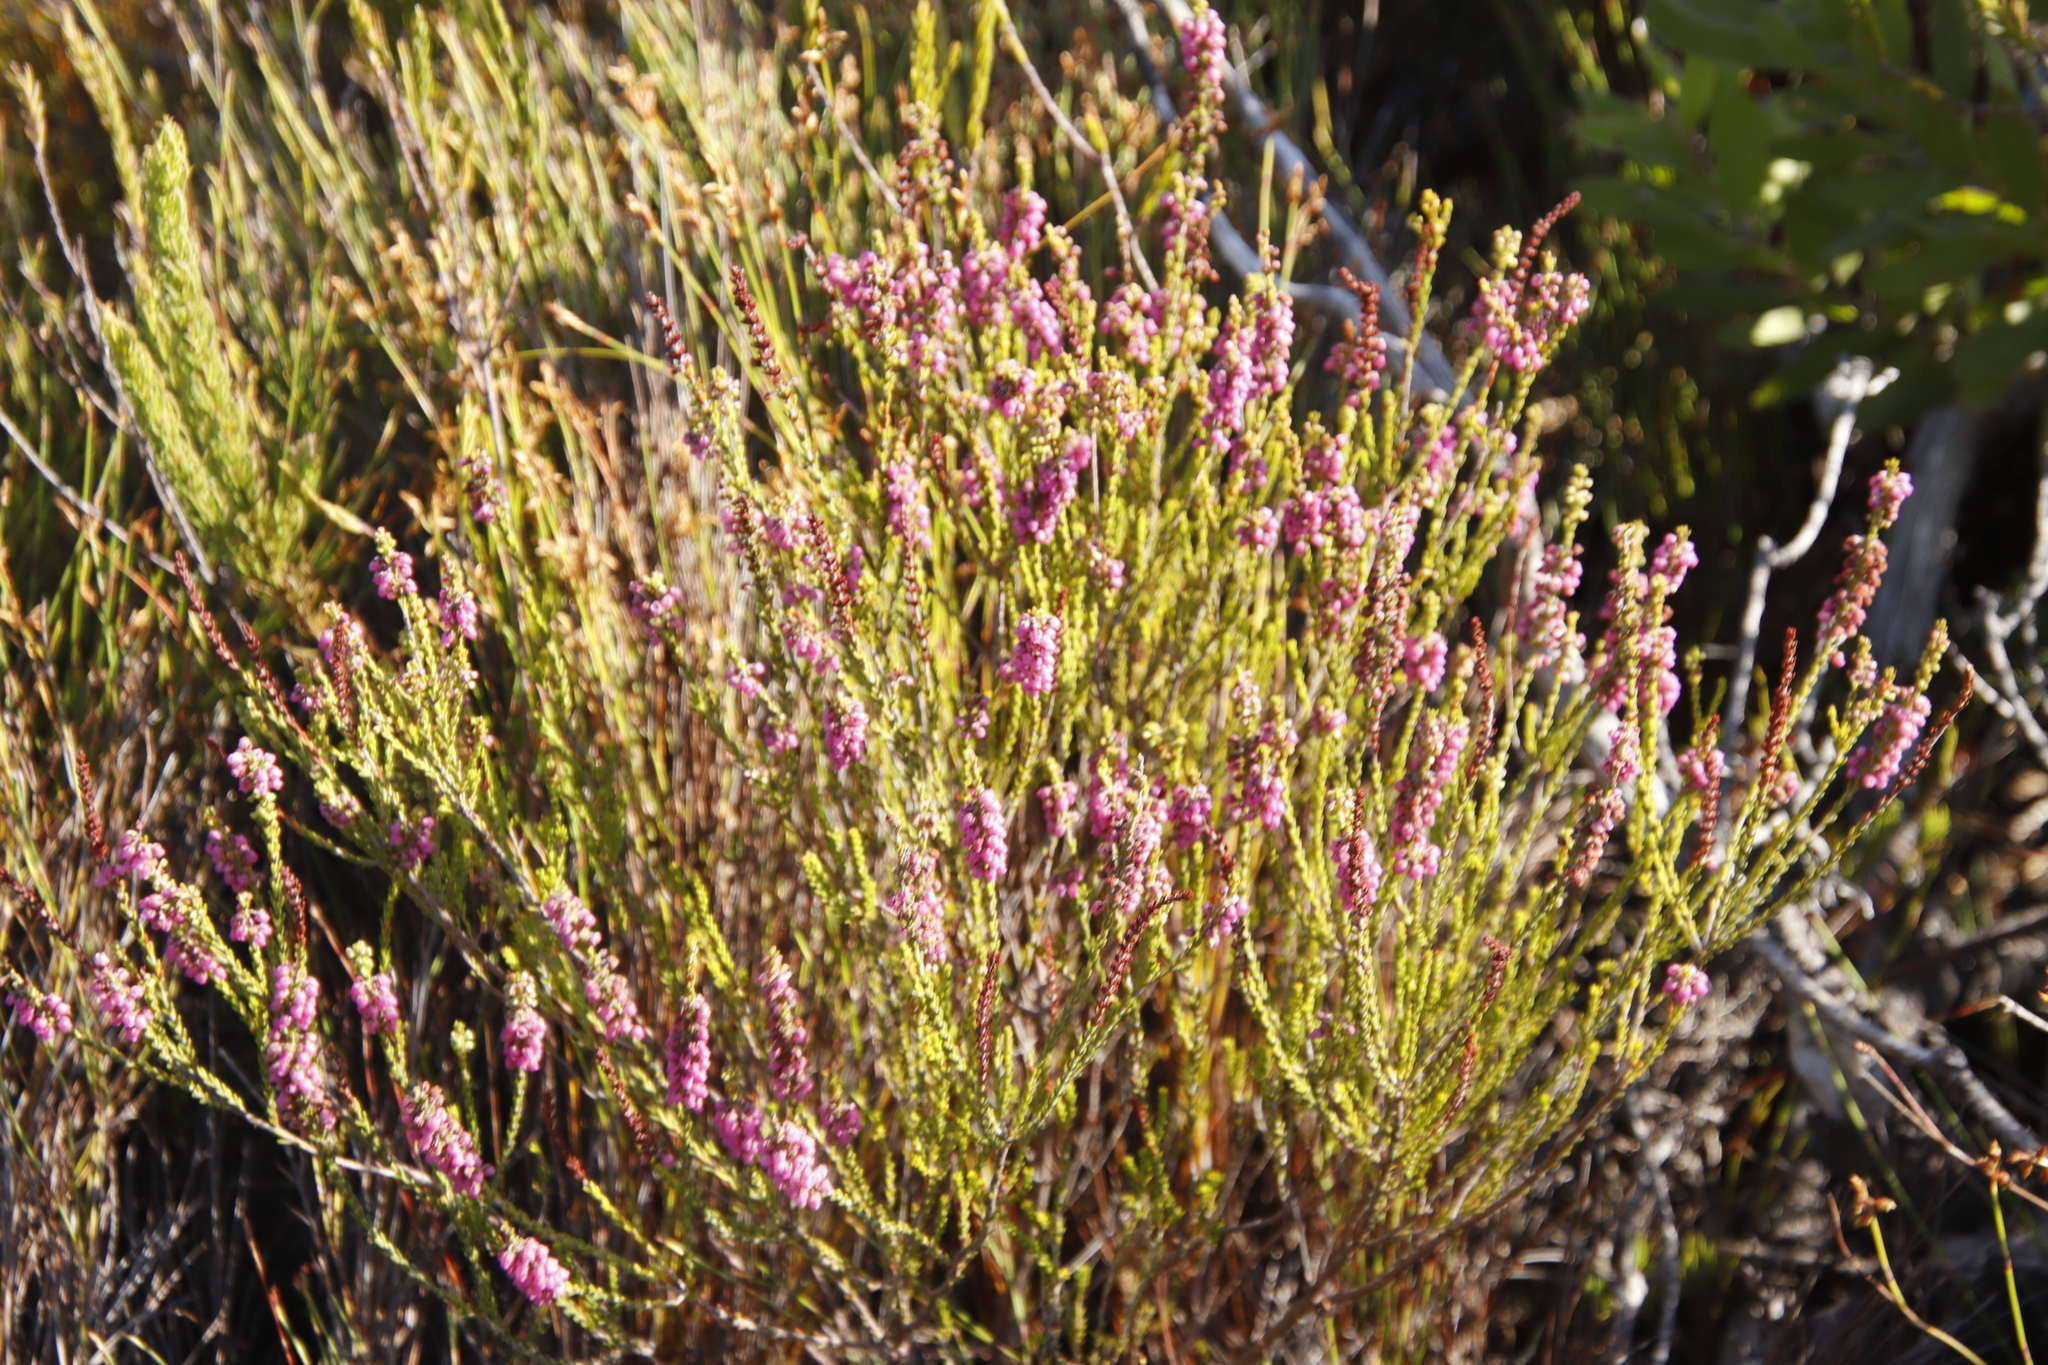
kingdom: Plantae
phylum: Tracheophyta
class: Magnoliopsida
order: Ericales
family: Ericaceae
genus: Erica
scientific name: Erica pulchella
